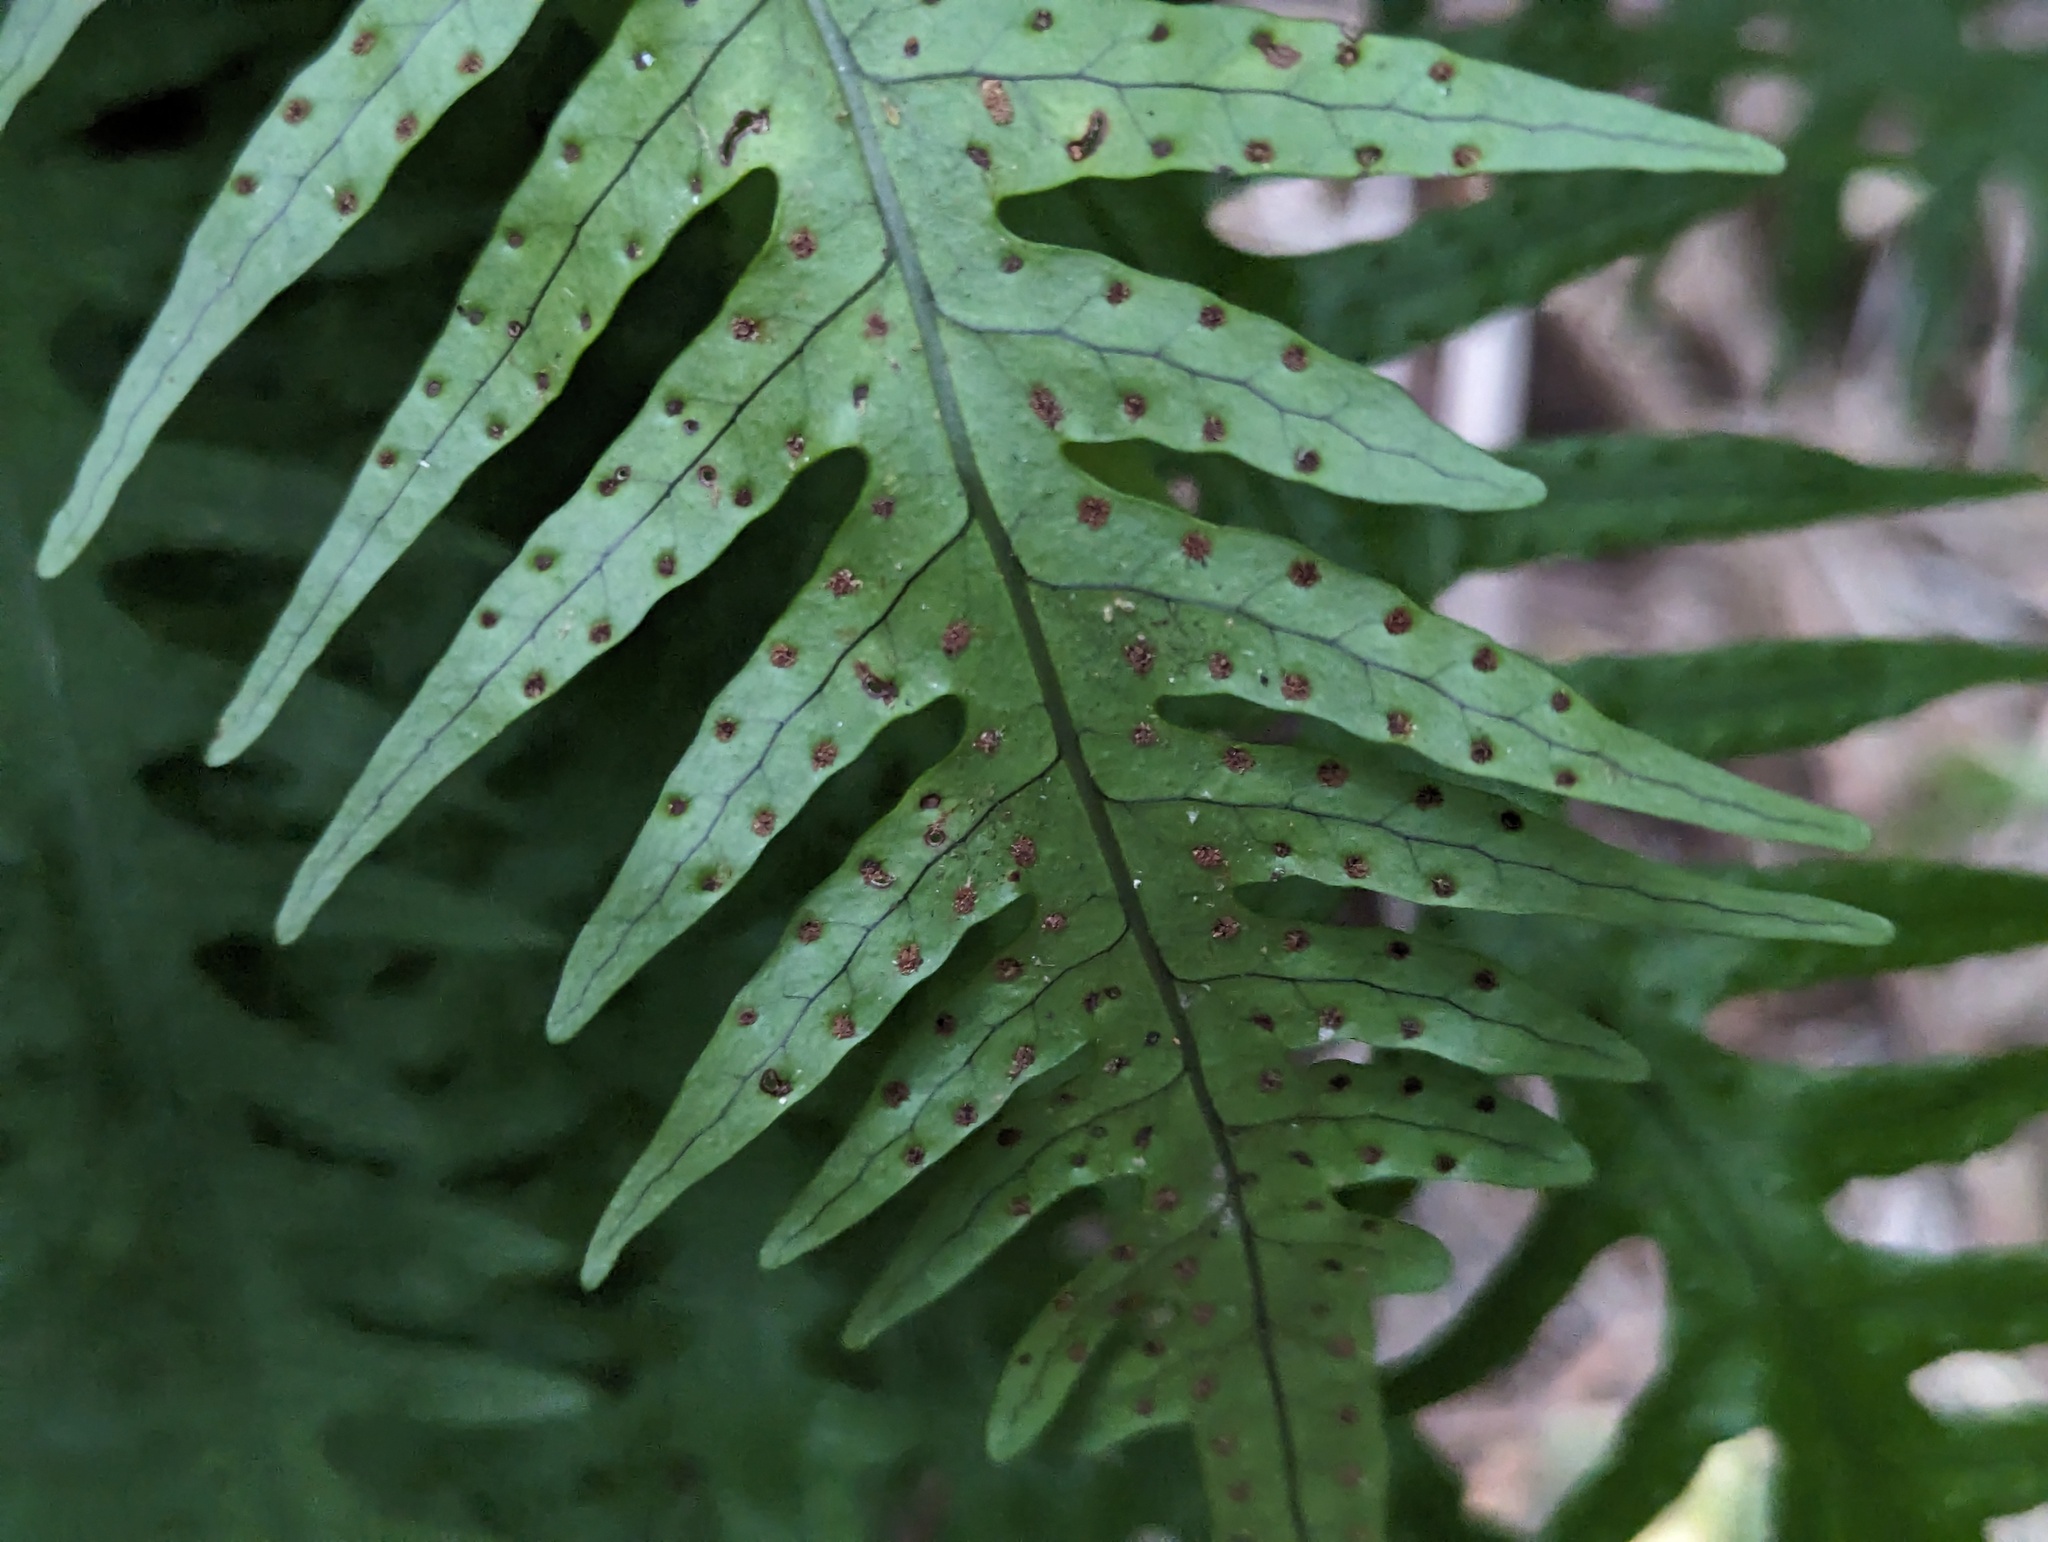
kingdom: Plantae
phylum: Tracheophyta
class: Polypodiopsida
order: Polypodiales
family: Polypodiaceae
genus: Lecanopteris
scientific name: Lecanopteris scandens
